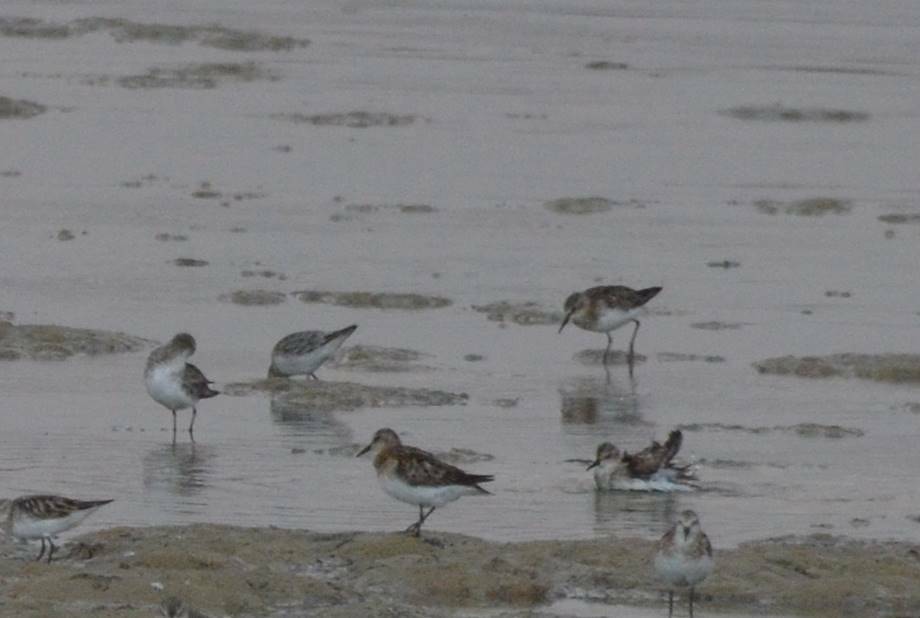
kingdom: Animalia
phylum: Chordata
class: Aves
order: Charadriiformes
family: Scolopacidae
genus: Calidris
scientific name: Calidris minuta
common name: Little stint
